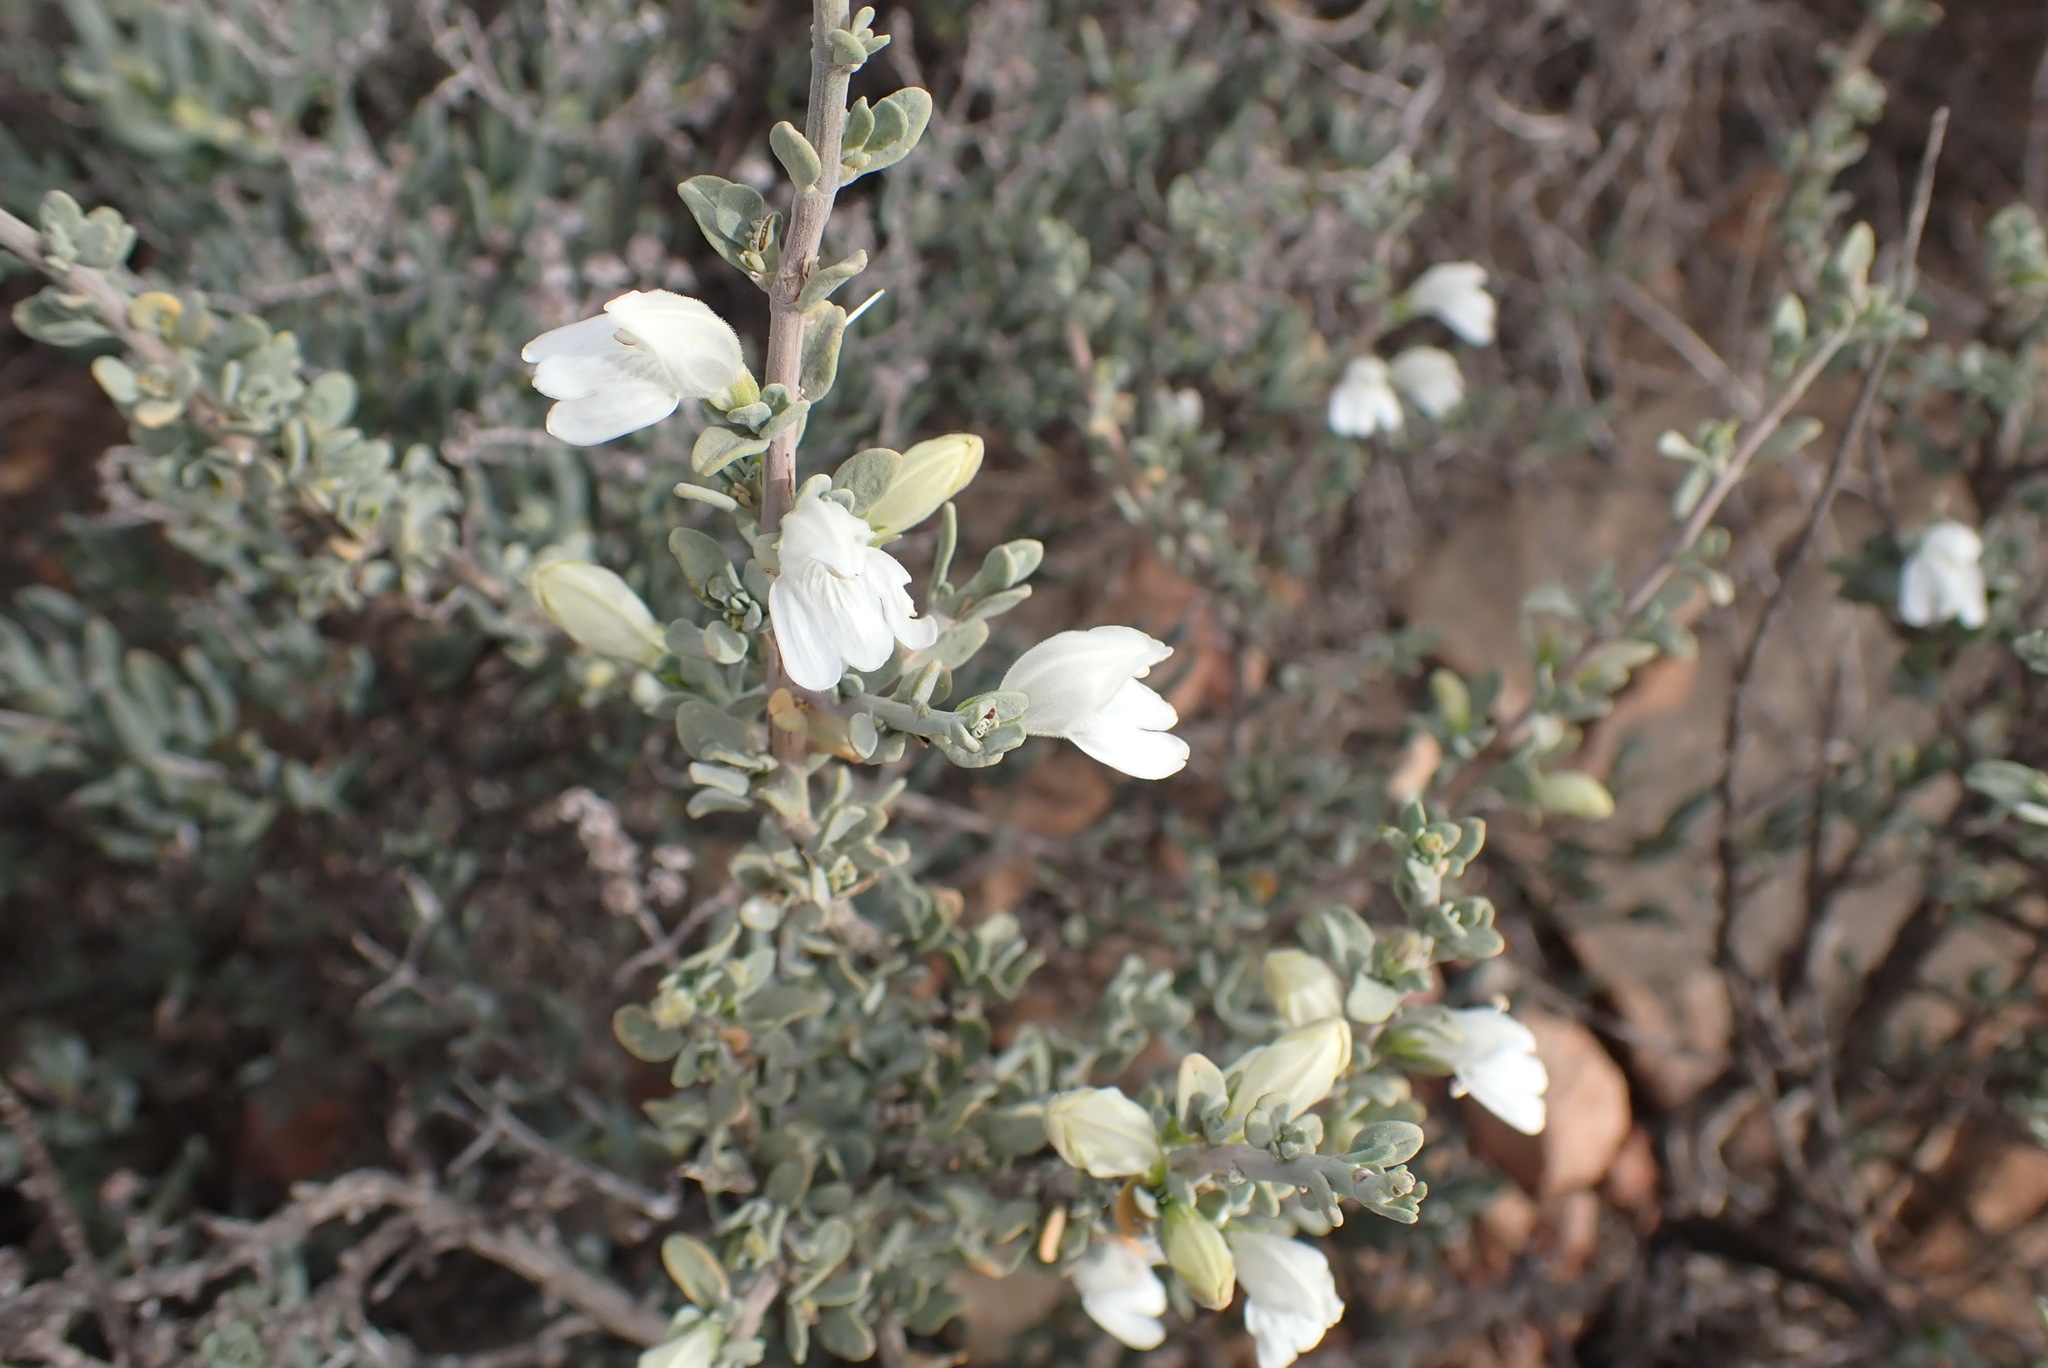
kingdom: Plantae
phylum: Tracheophyta
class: Magnoliopsida
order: Lamiales
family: Acanthaceae
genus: Pogonospermum
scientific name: Pogonospermum
